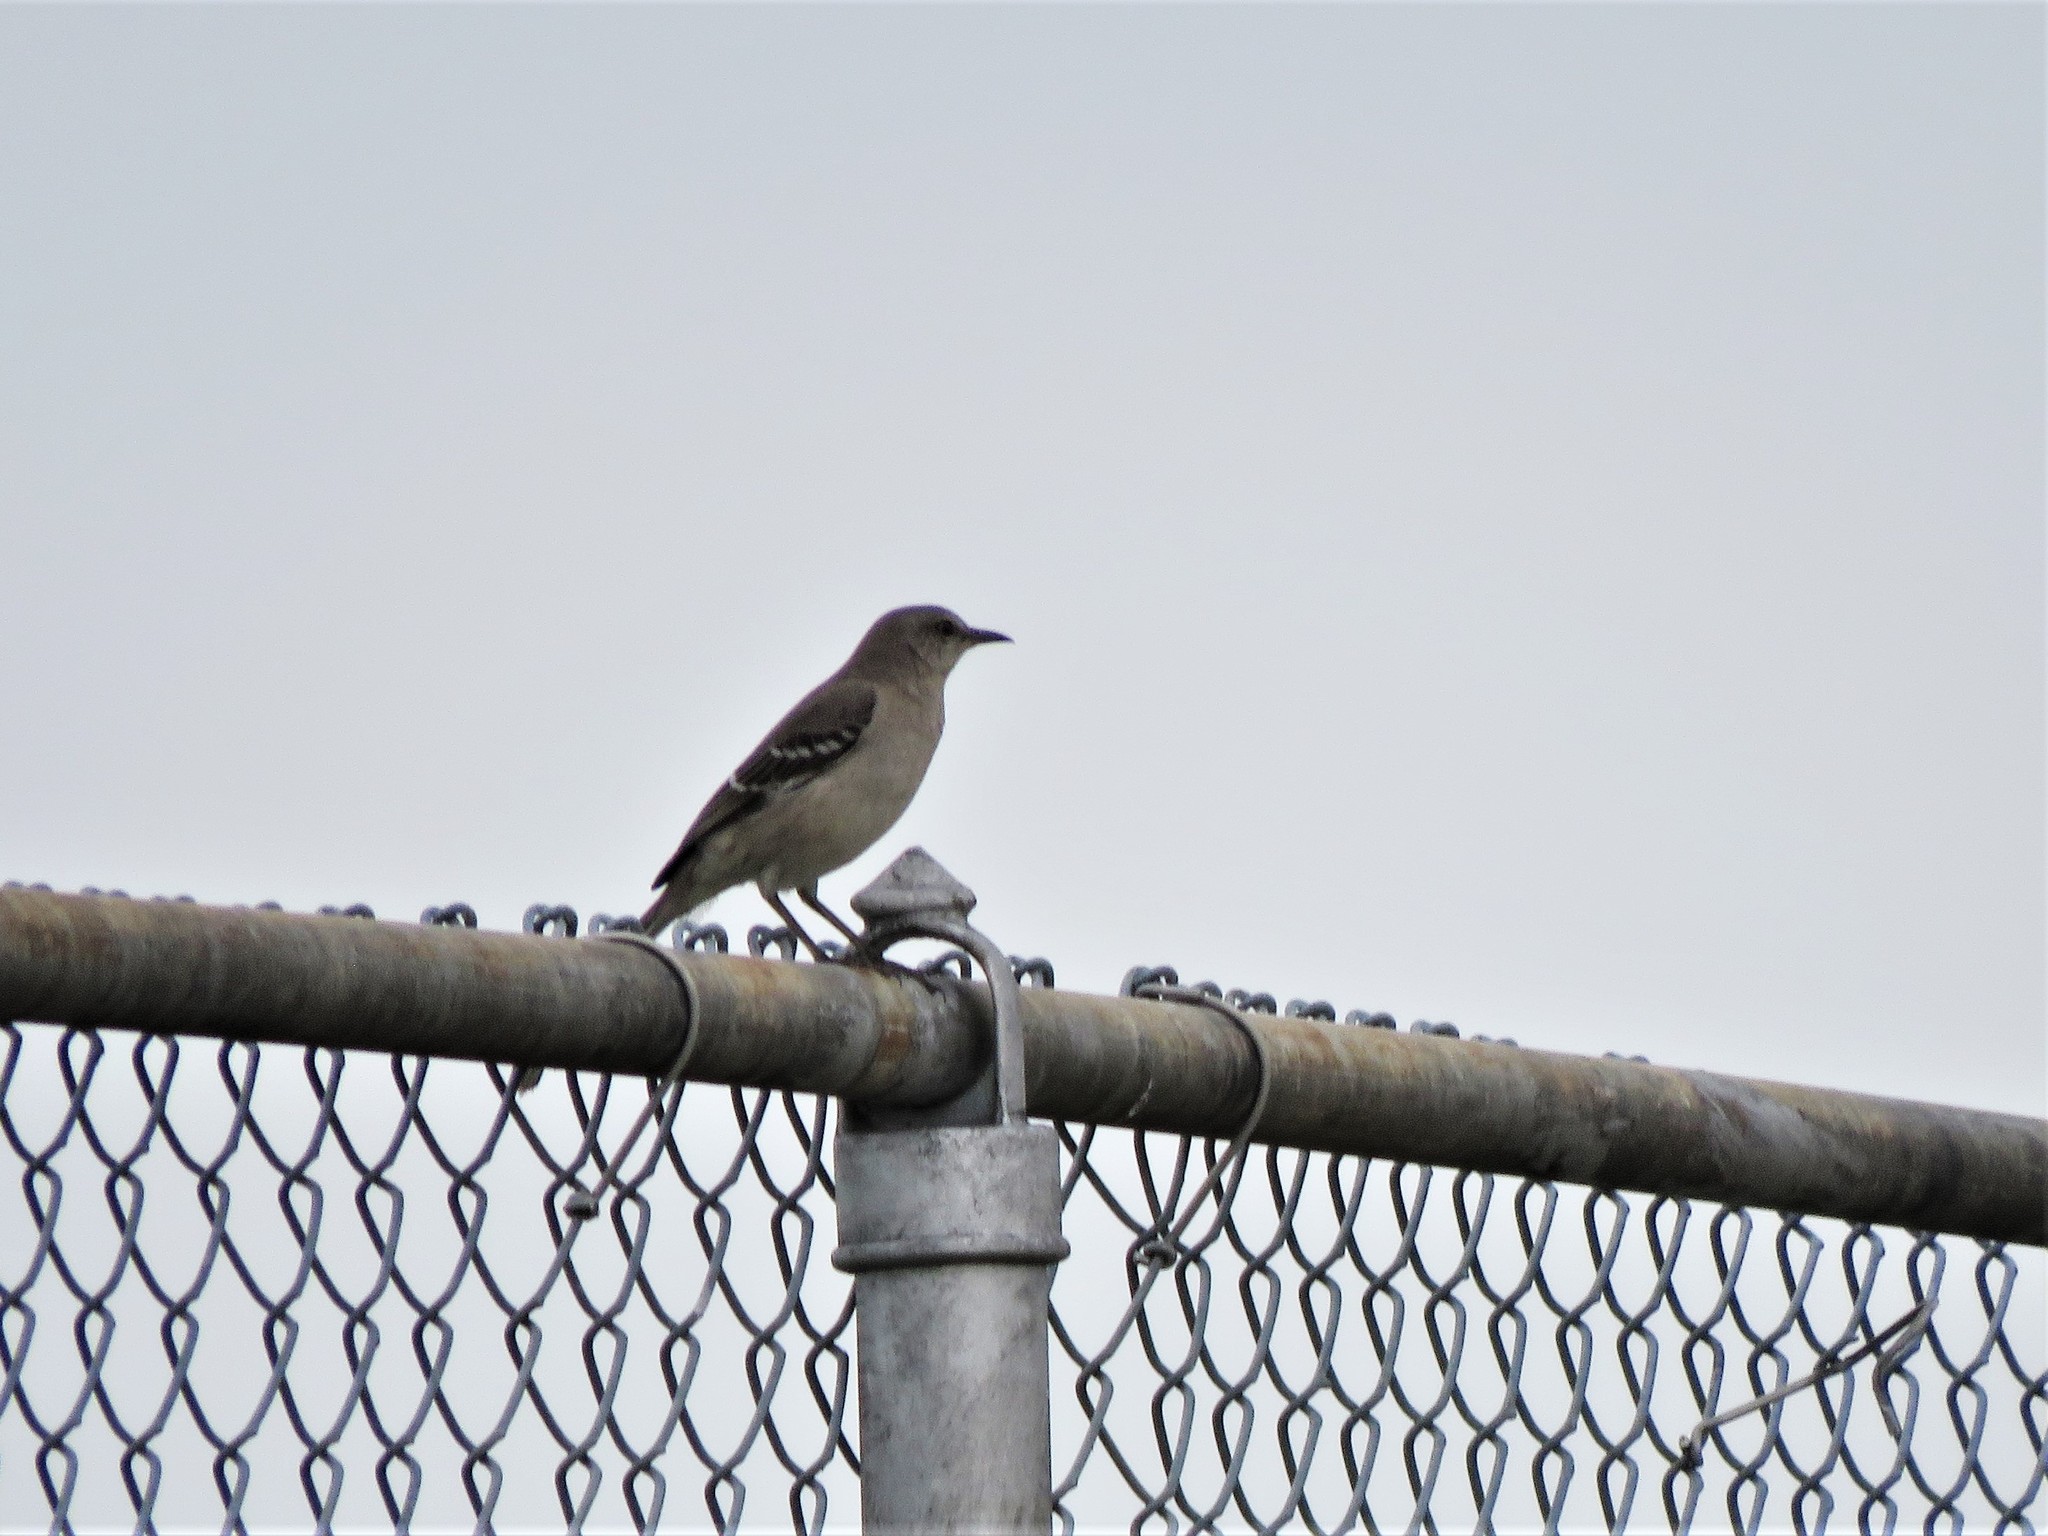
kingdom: Animalia
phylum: Chordata
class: Aves
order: Passeriformes
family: Mimidae
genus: Mimus
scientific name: Mimus polyglottos
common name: Northern mockingbird
